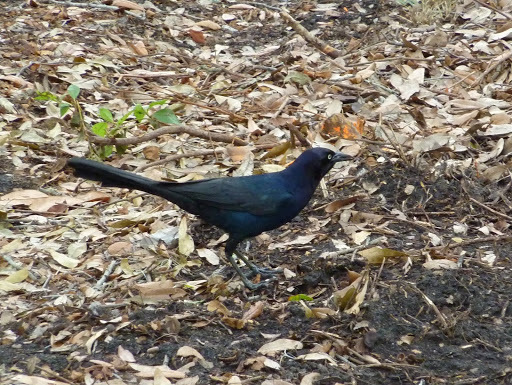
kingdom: Animalia
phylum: Chordata
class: Aves
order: Passeriformes
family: Icteridae
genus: Quiscalus
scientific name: Quiscalus major
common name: Boat-tailed grackle
